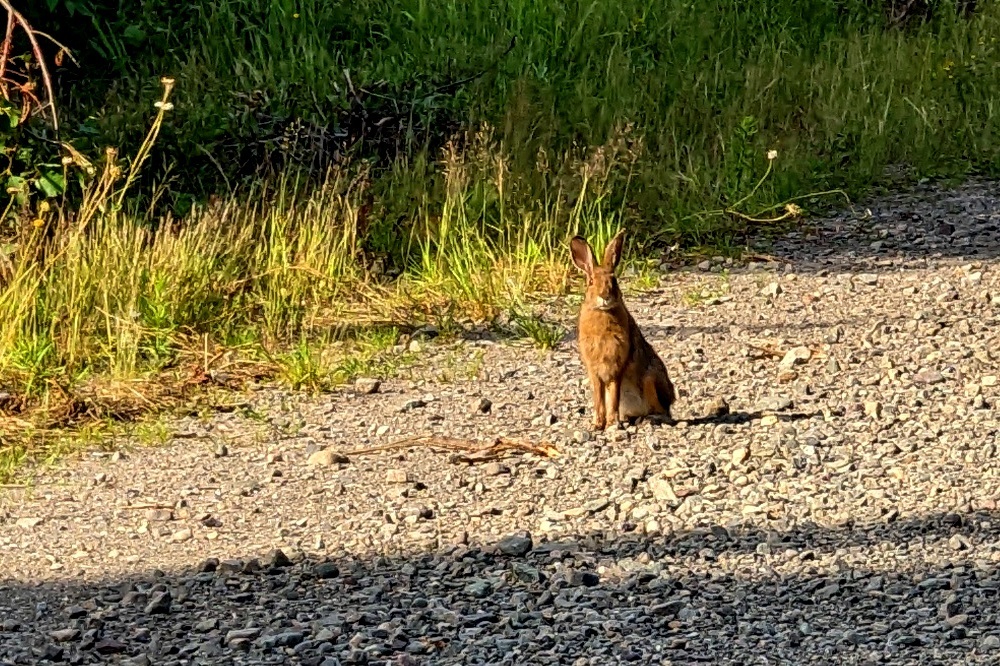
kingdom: Animalia
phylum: Chordata
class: Mammalia
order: Lagomorpha
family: Leporidae
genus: Lepus
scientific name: Lepus americanus
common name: Snowshoe hare
